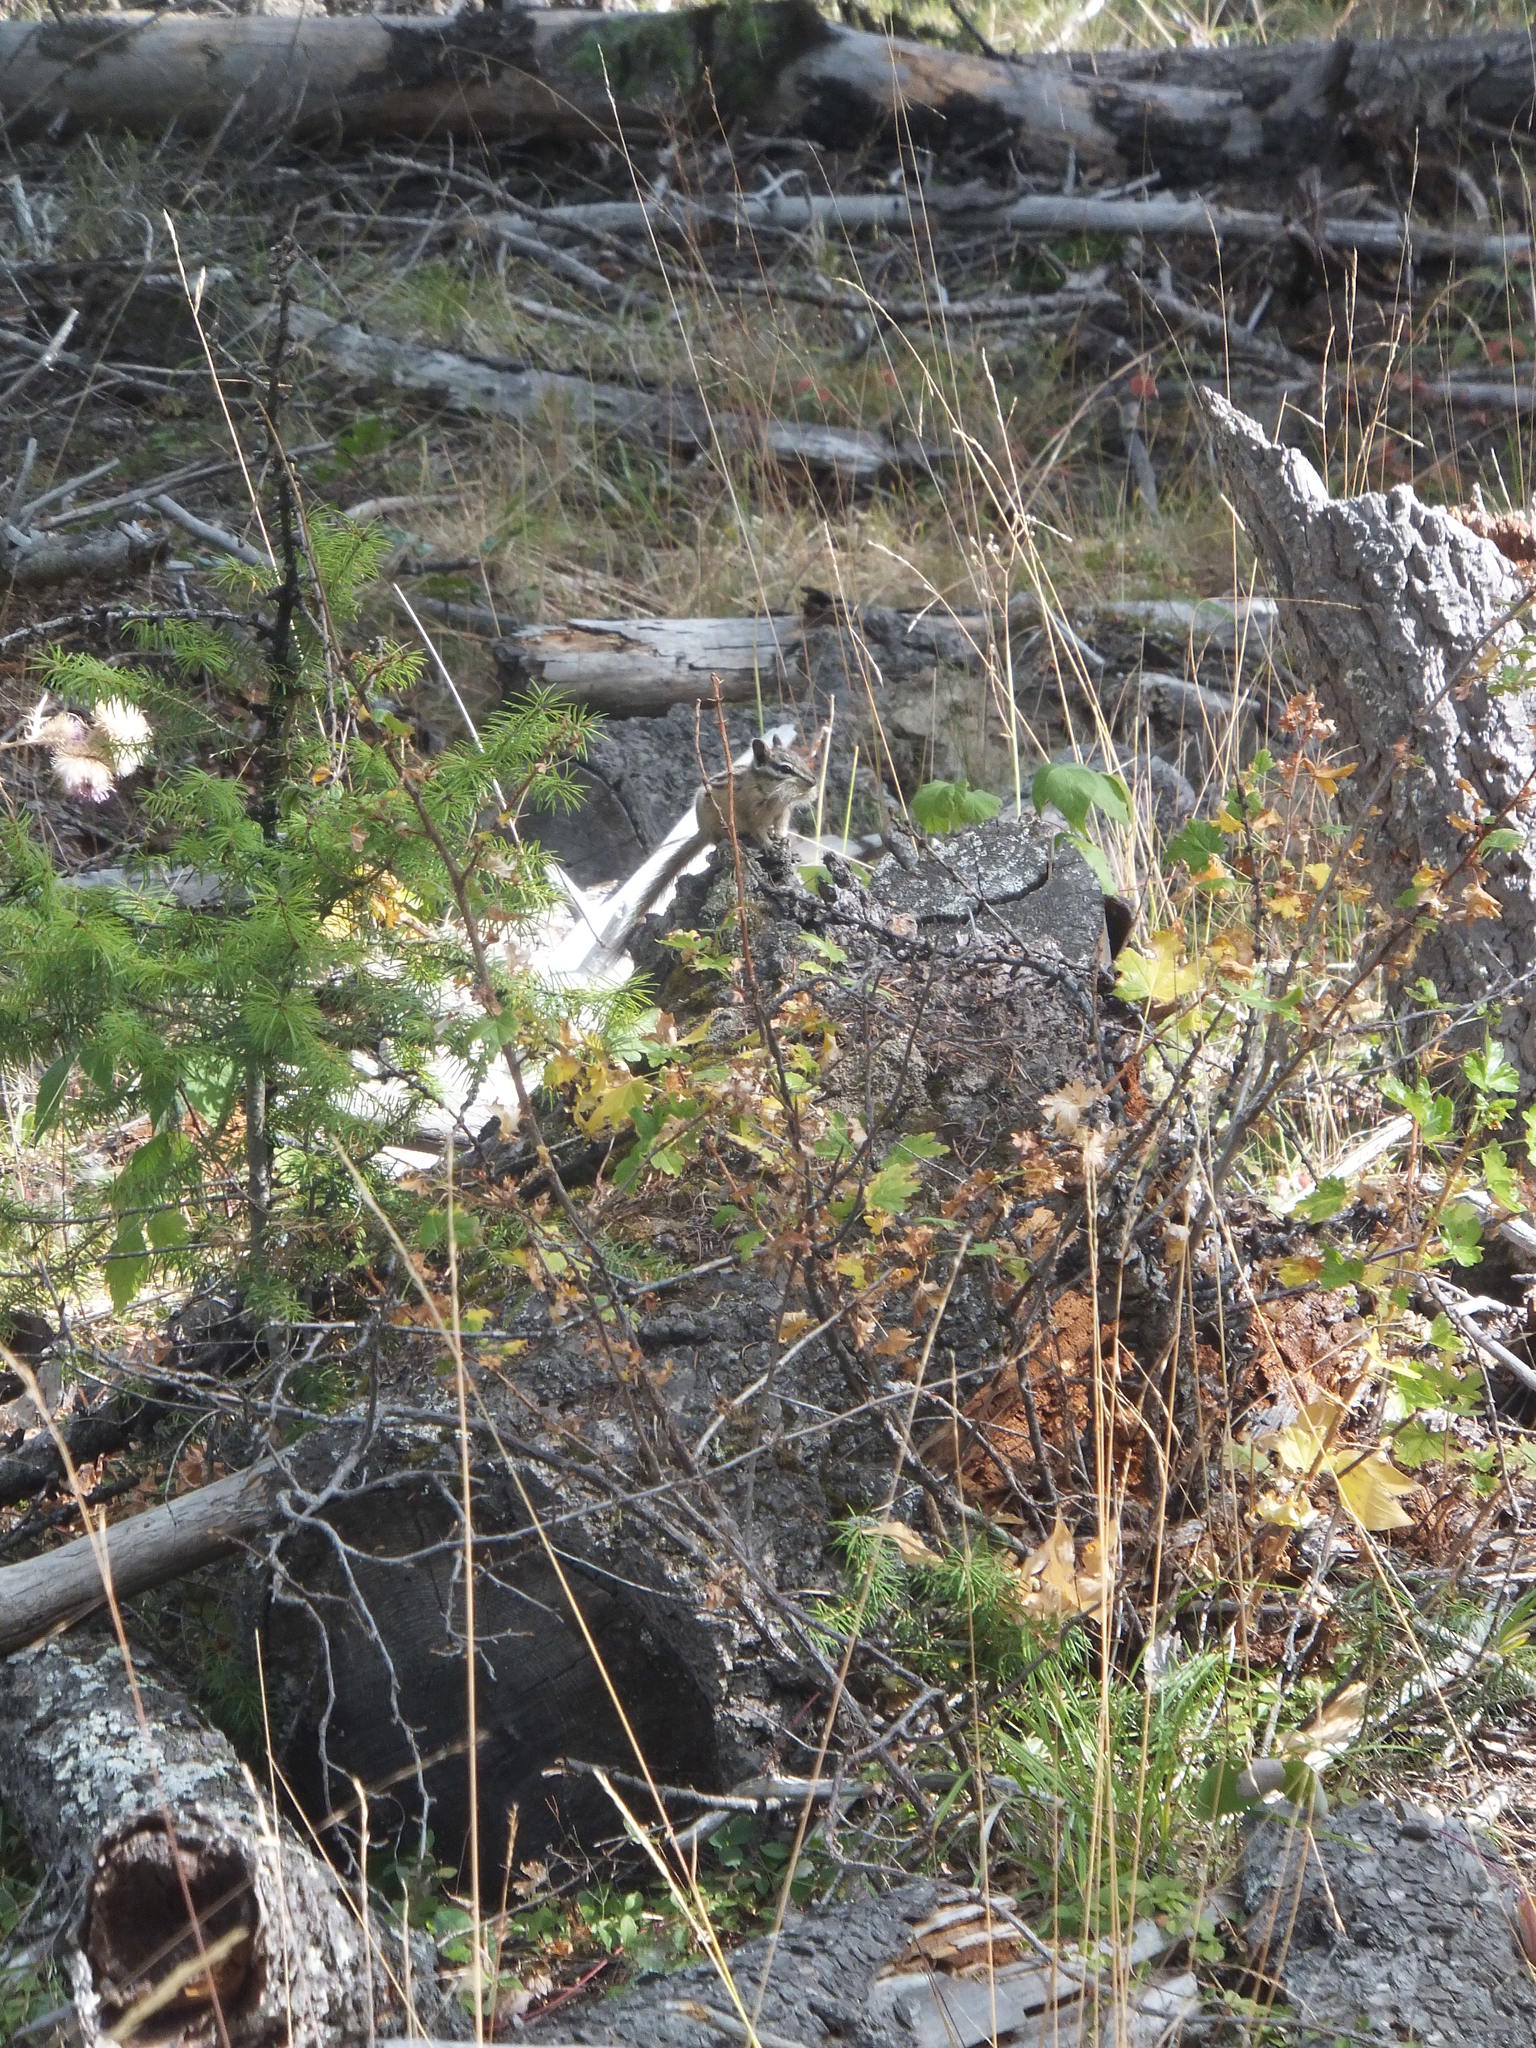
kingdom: Animalia
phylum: Chordata
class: Mammalia
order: Rodentia
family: Sciuridae
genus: Tamias
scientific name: Tamias amoenus
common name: Yellow-pine chipmunk
